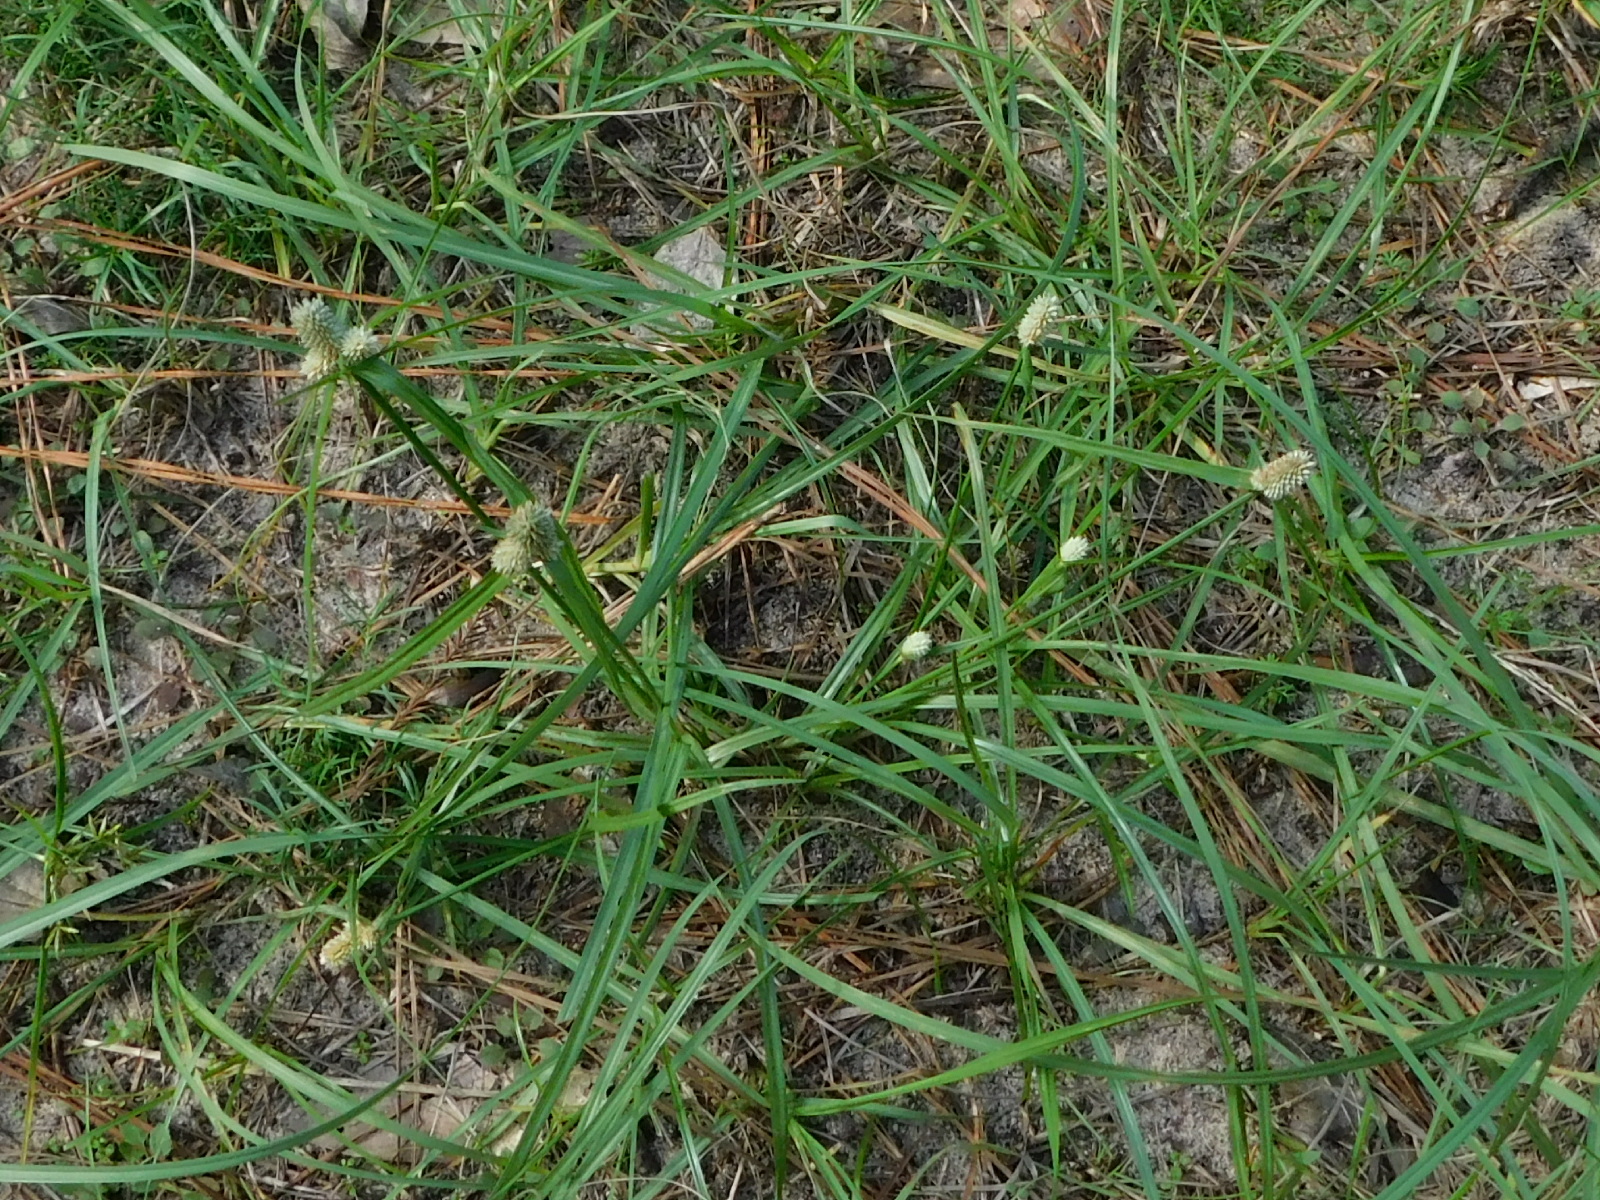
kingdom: Plantae
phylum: Tracheophyta
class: Liliopsida
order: Poales
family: Cyperaceae
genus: Cyperus
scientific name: Cyperus sesquiflorus
